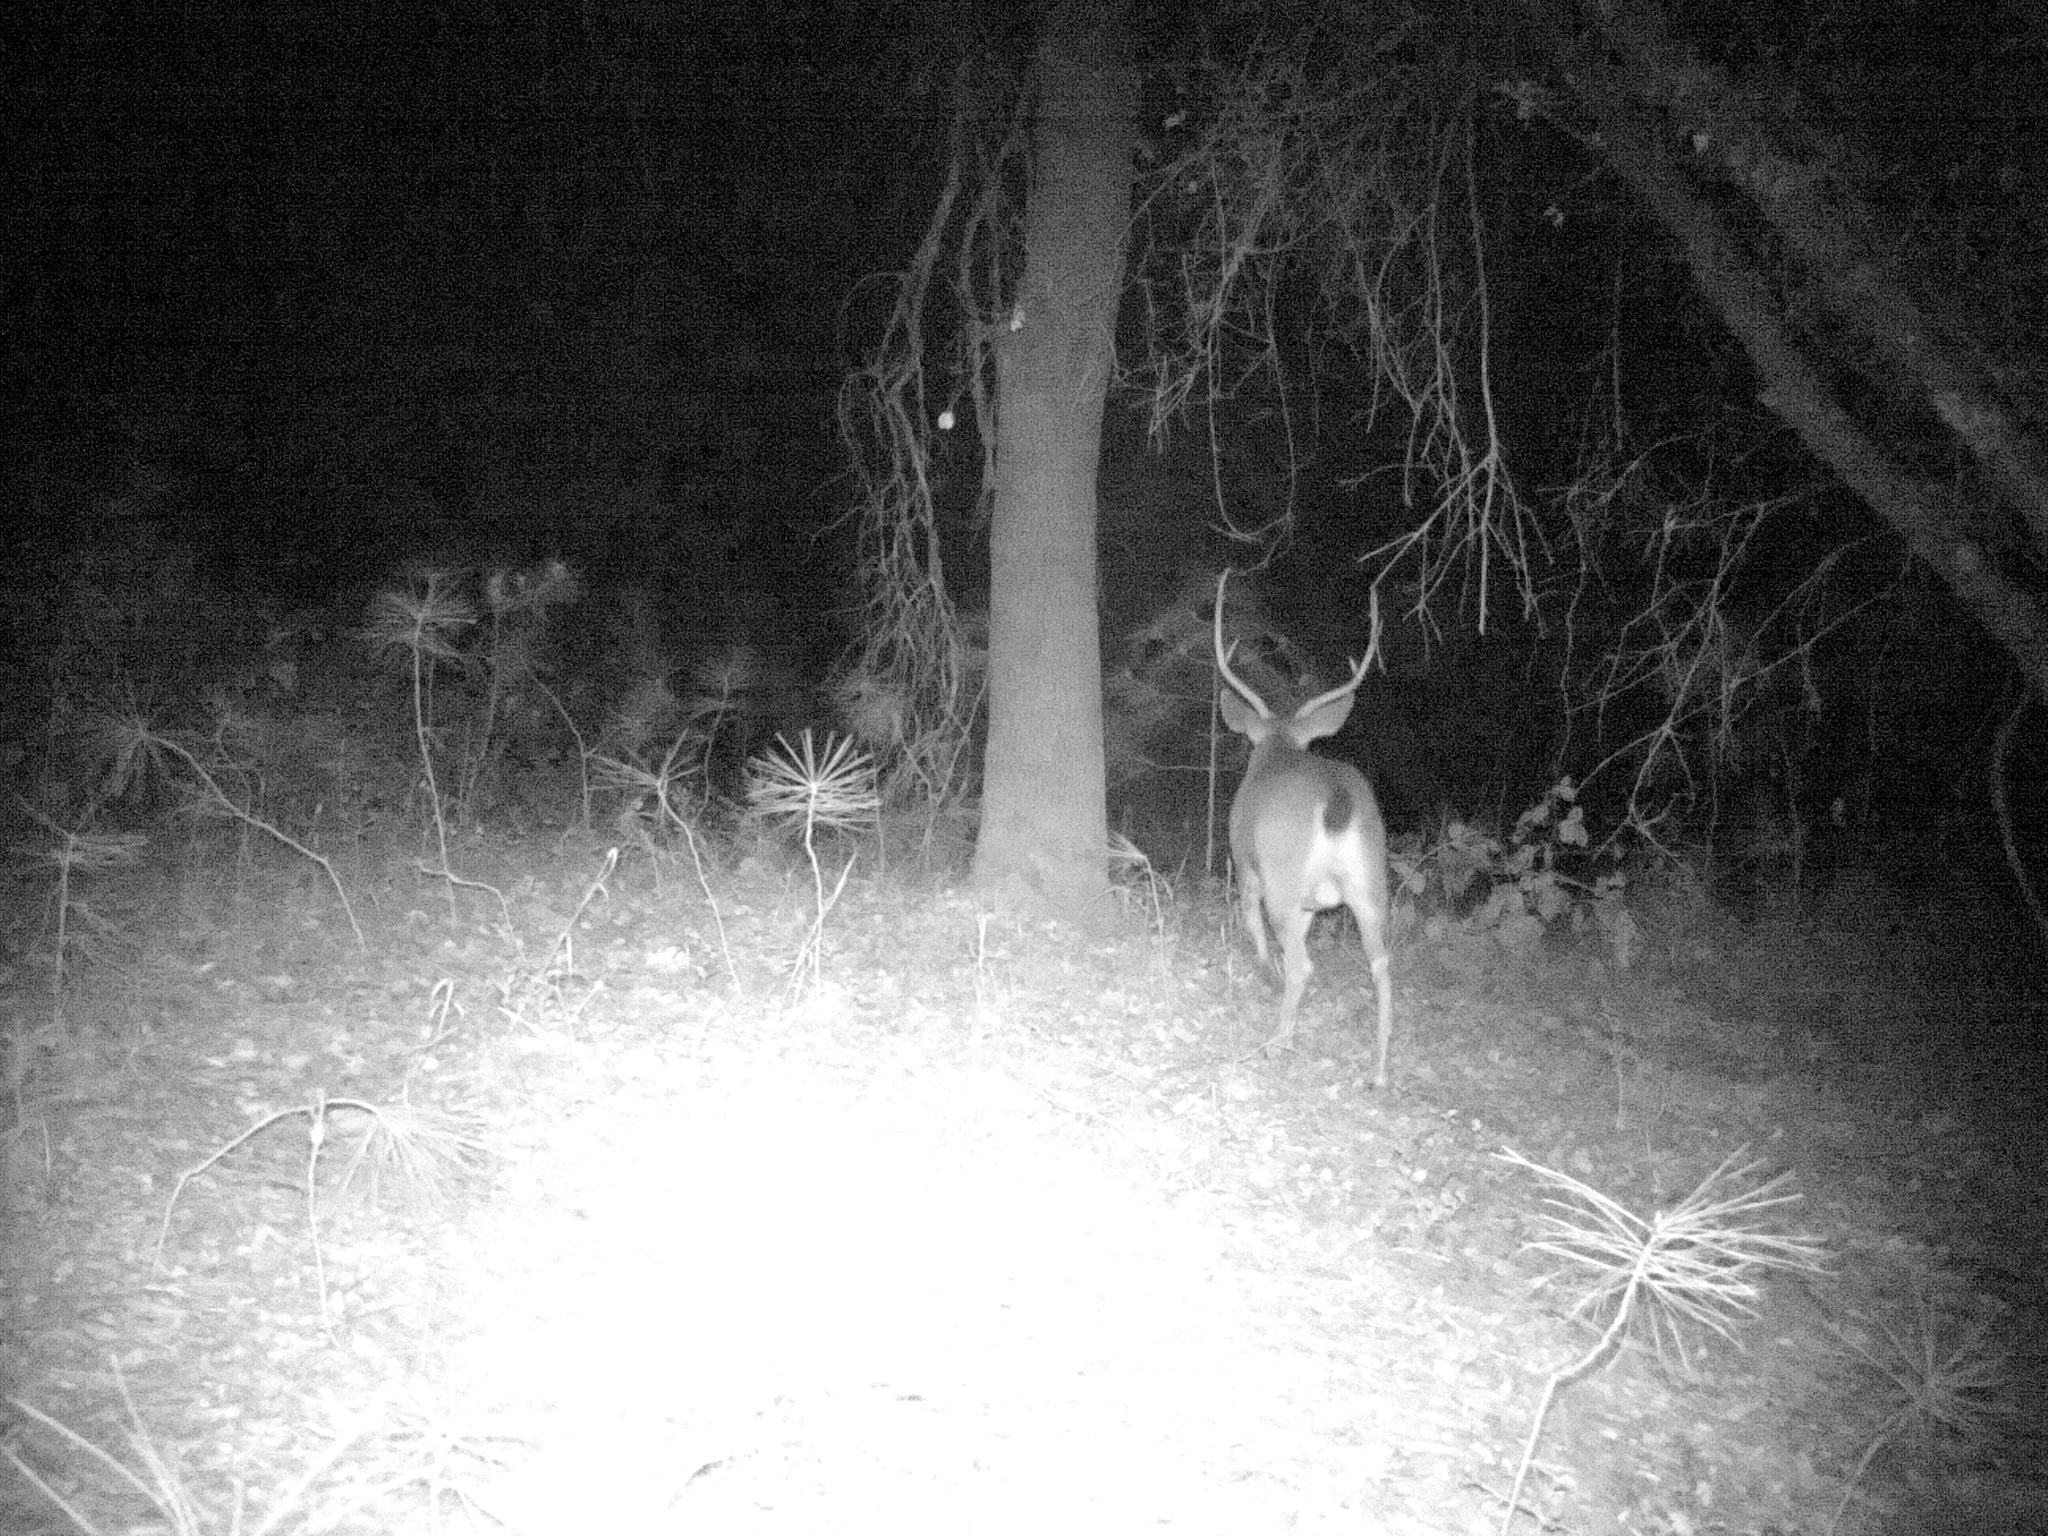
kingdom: Animalia
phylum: Chordata
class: Mammalia
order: Artiodactyla
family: Cervidae
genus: Odocoileus
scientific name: Odocoileus hemionus
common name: Mule deer
